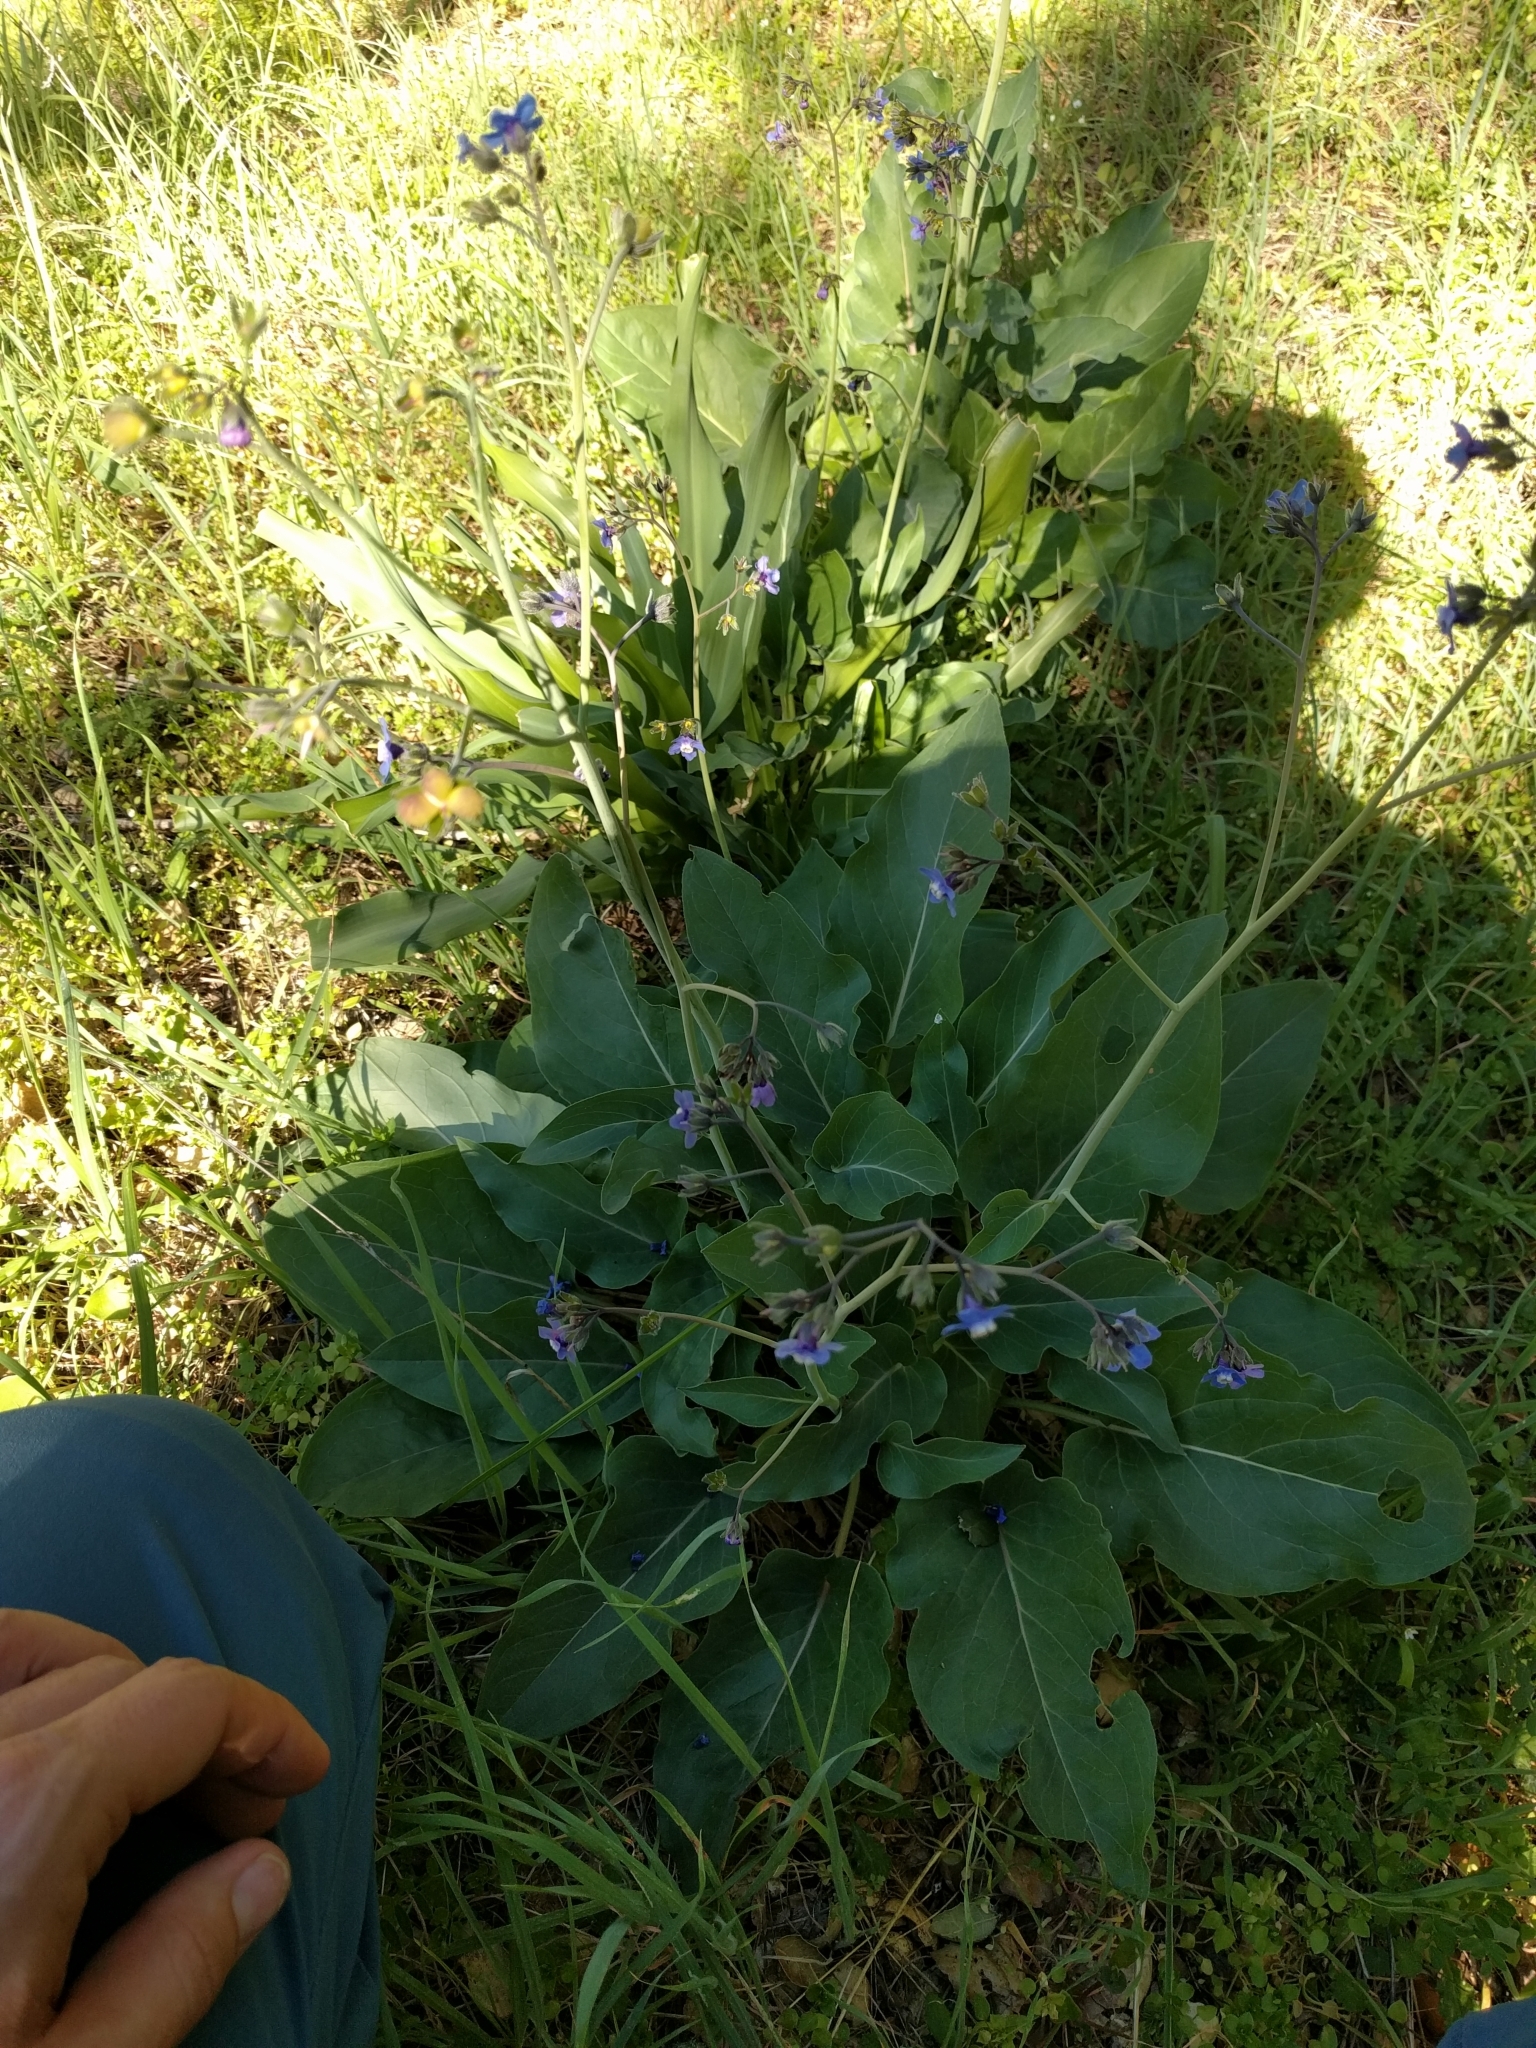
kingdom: Plantae
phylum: Tracheophyta
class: Magnoliopsida
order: Boraginales
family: Boraginaceae
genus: Adelinia
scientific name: Adelinia grande
